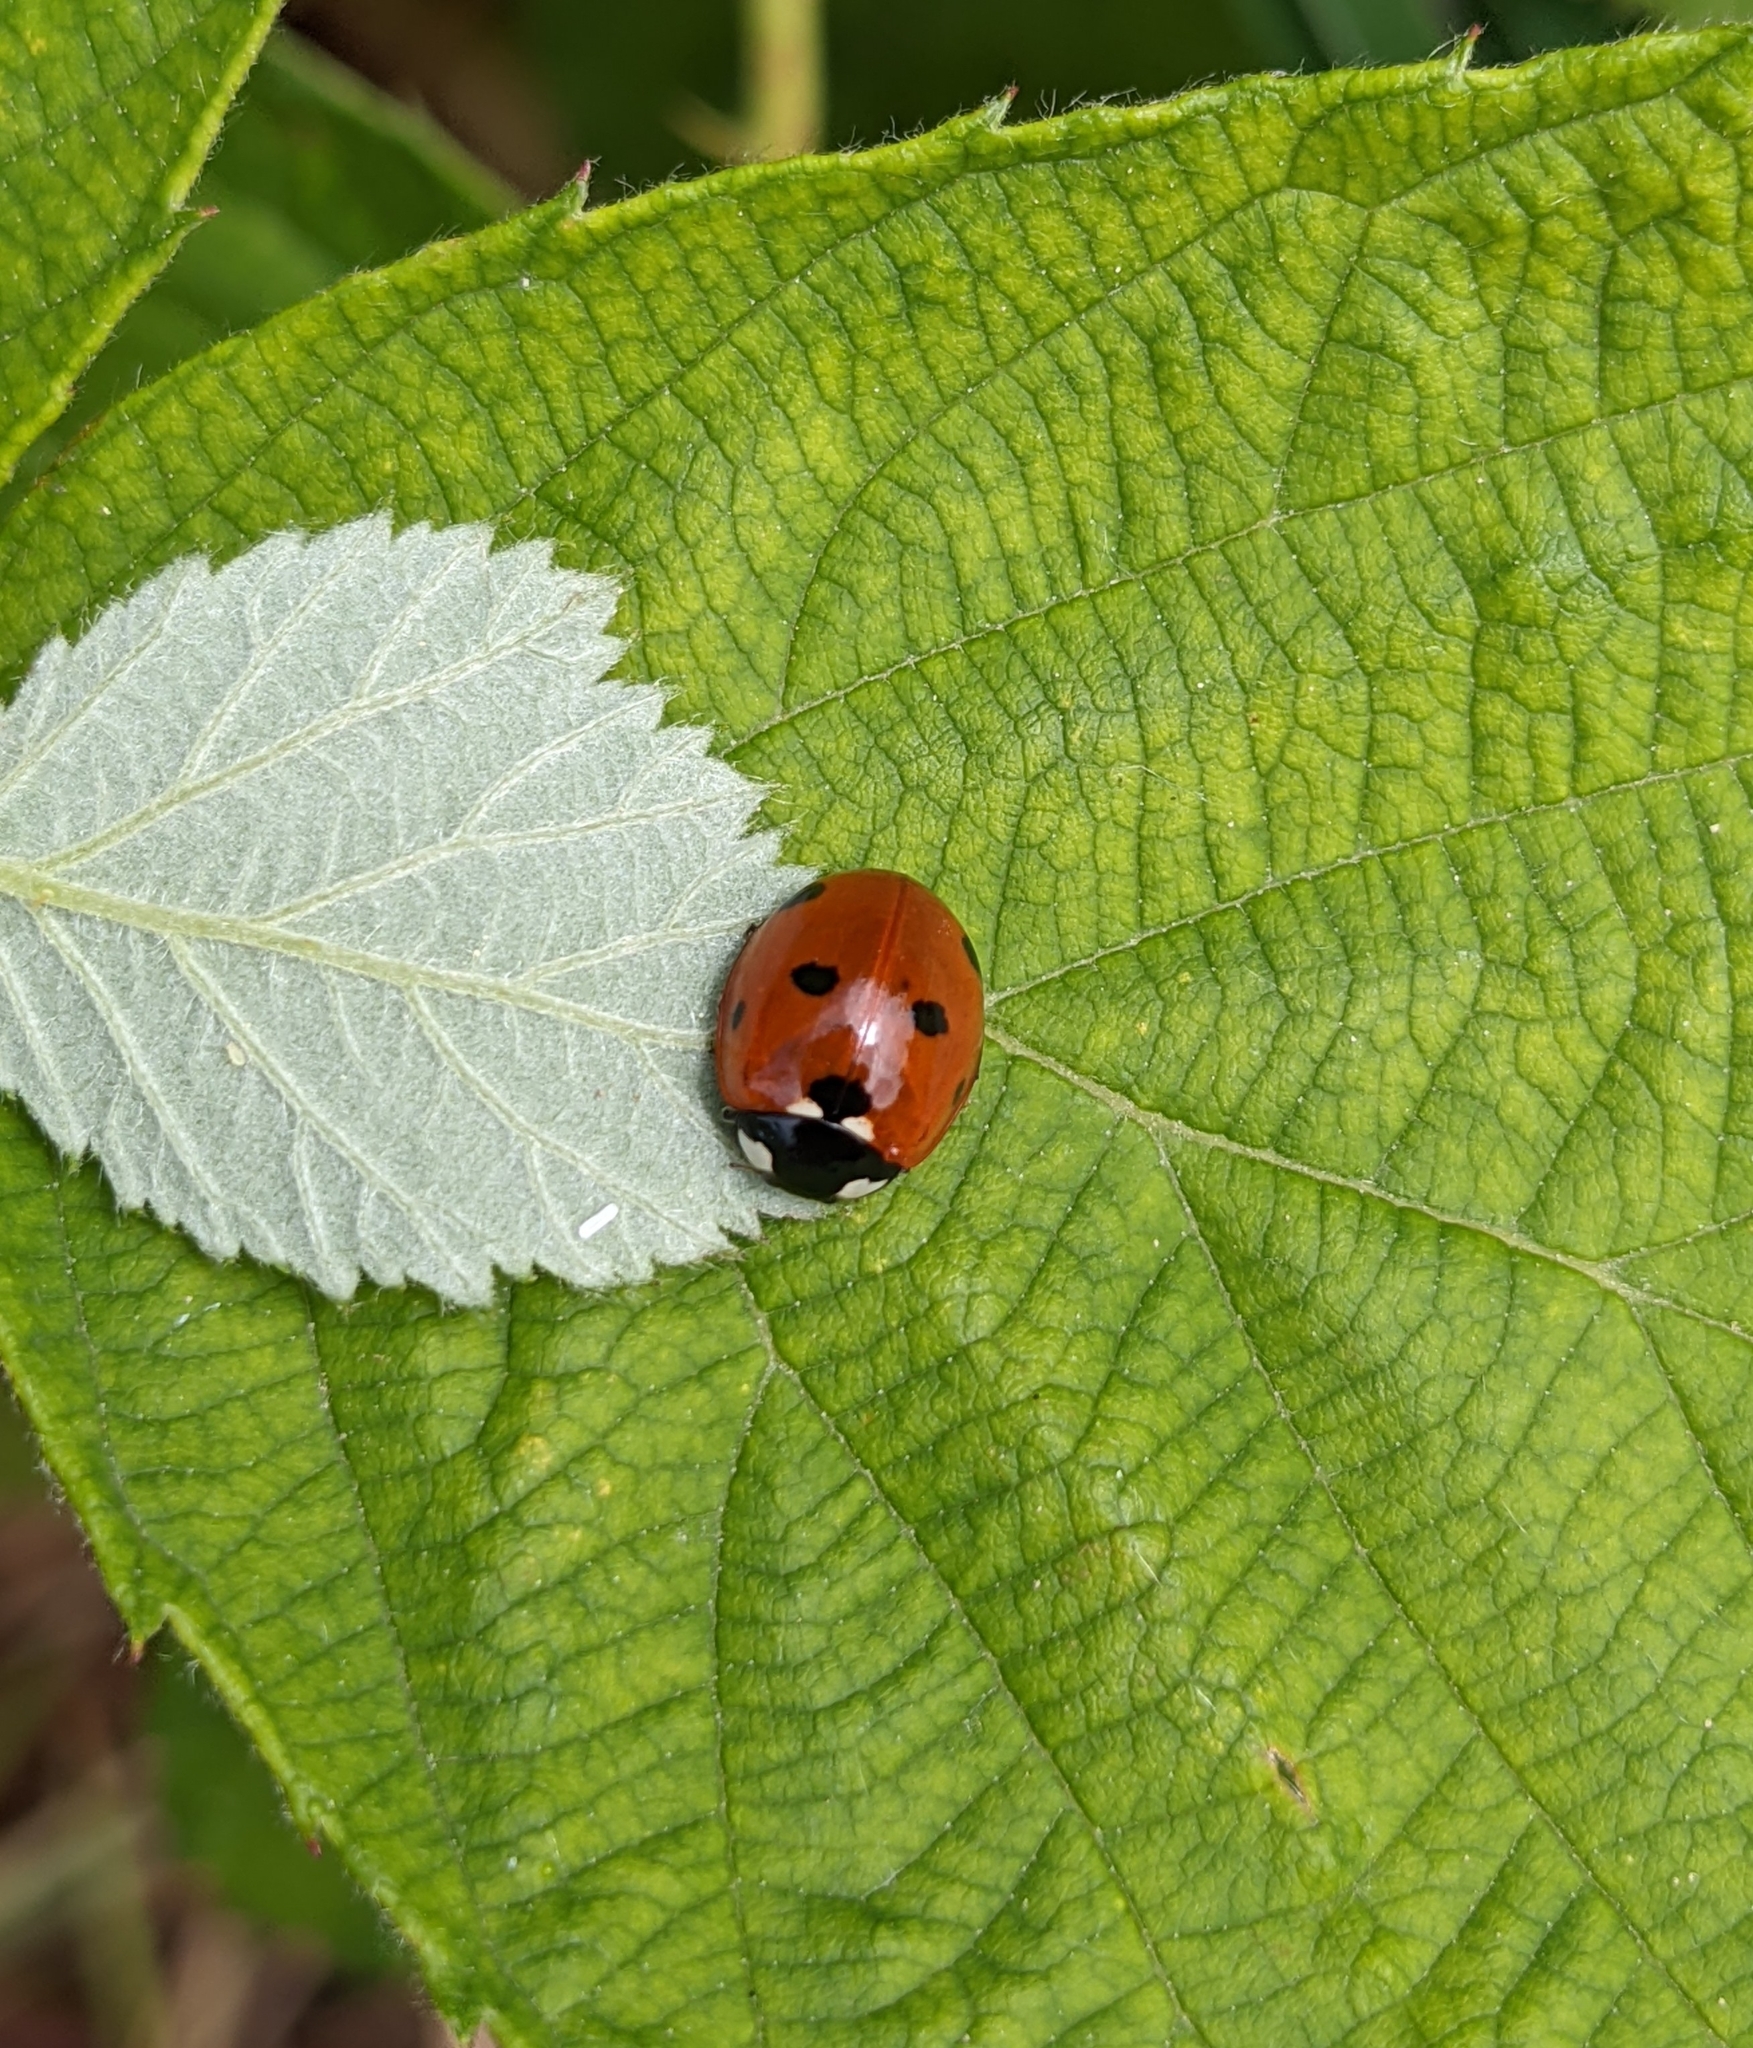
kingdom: Animalia
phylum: Arthropoda
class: Insecta
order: Coleoptera
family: Coccinellidae
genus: Coccinella
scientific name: Coccinella septempunctata
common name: Sevenspotted lady beetle
